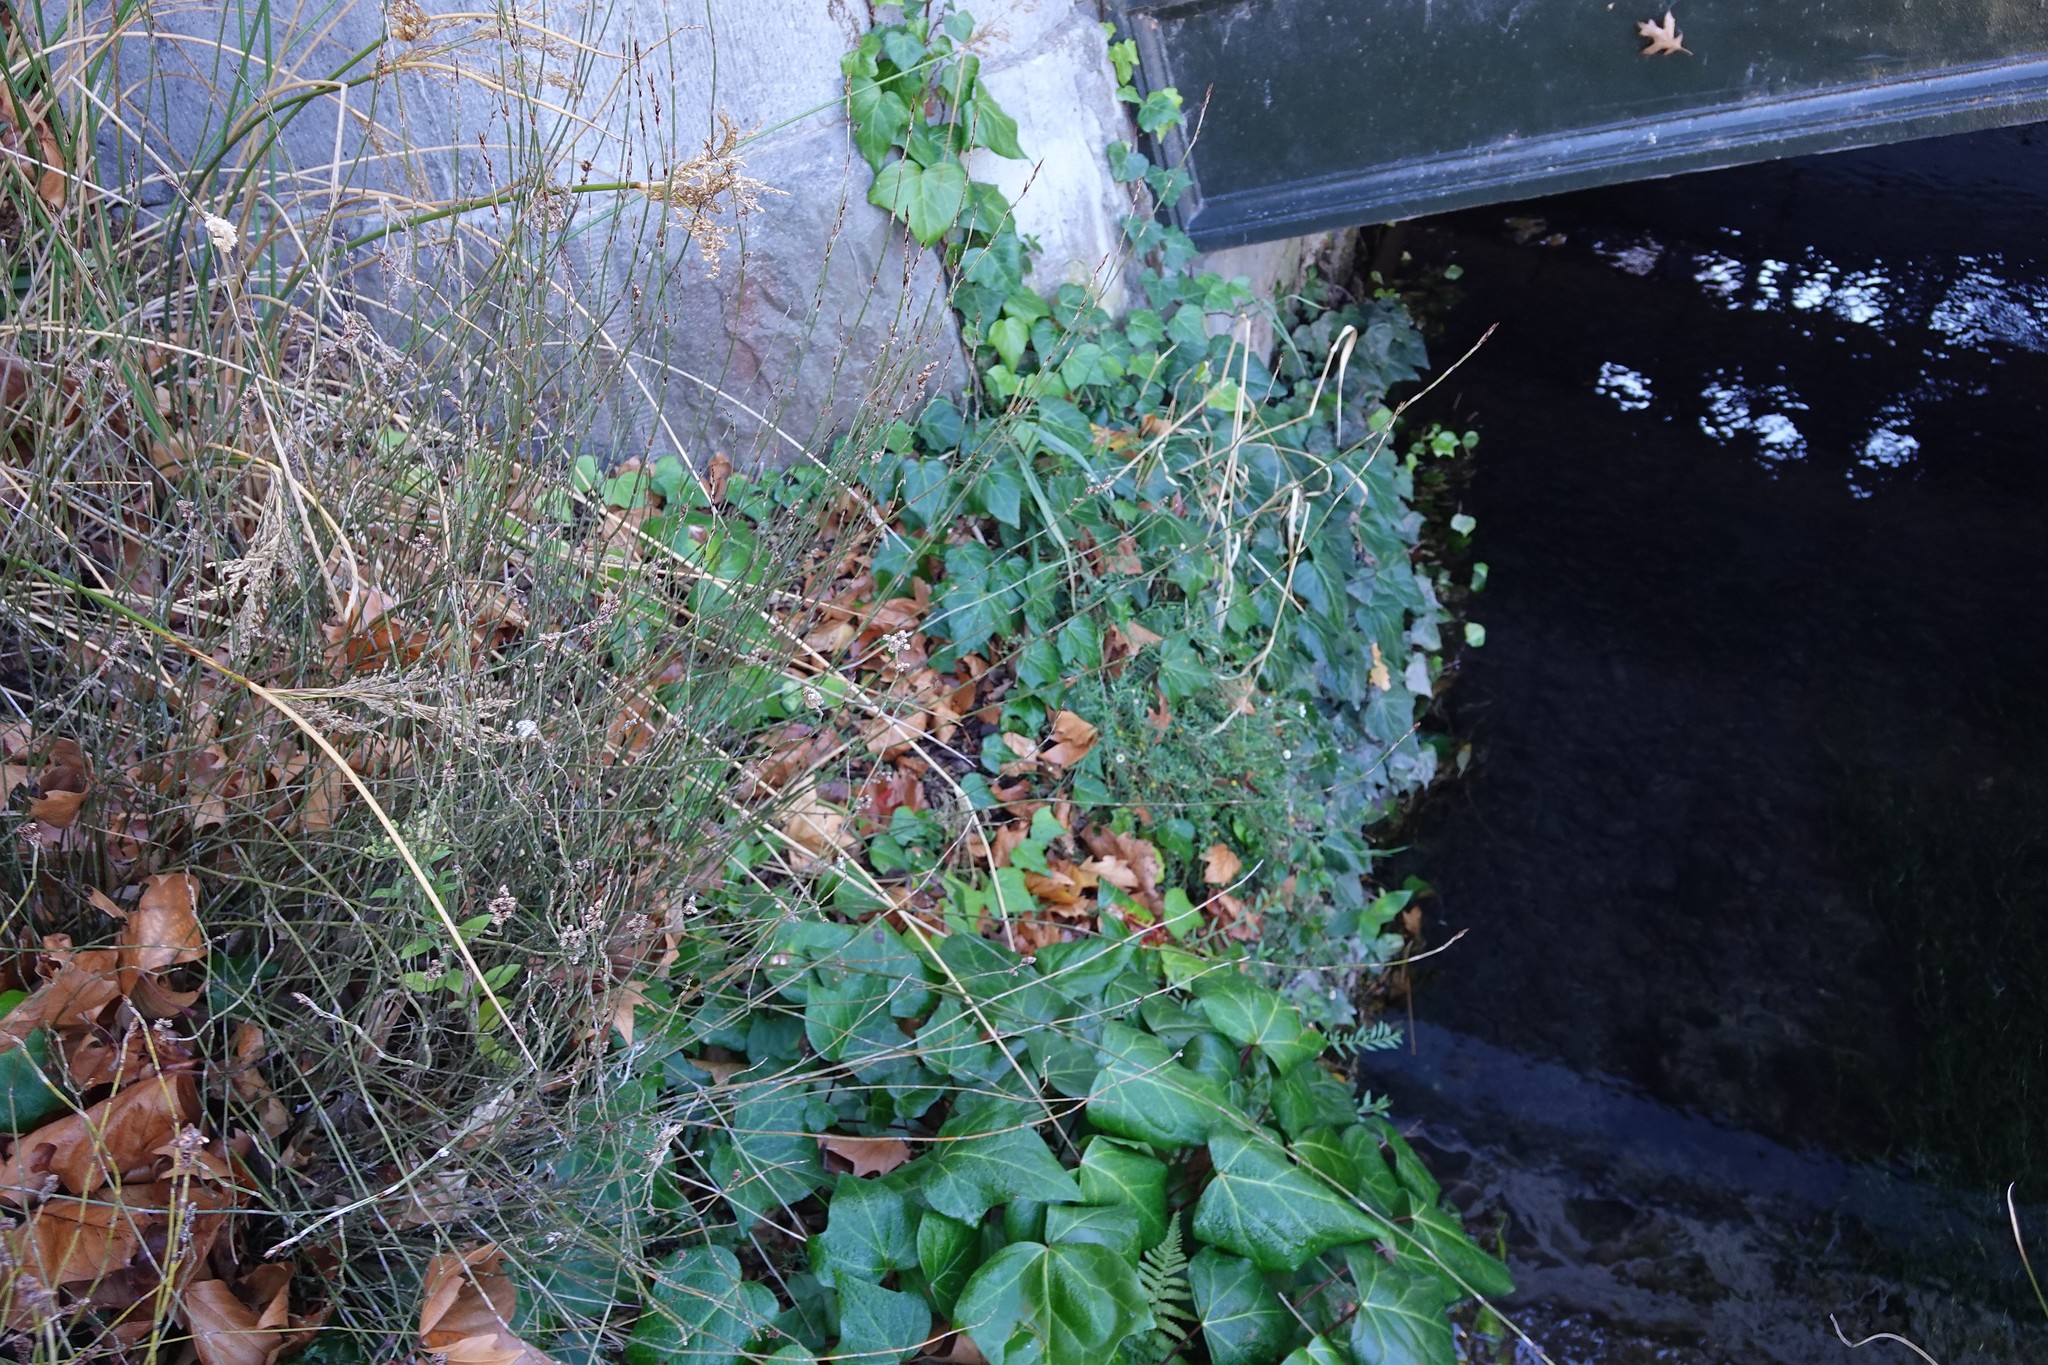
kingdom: Plantae
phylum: Tracheophyta
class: Magnoliopsida
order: Asterales
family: Asteraceae
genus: Erigeron
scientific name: Erigeron karvinskianus
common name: Mexican fleabane
